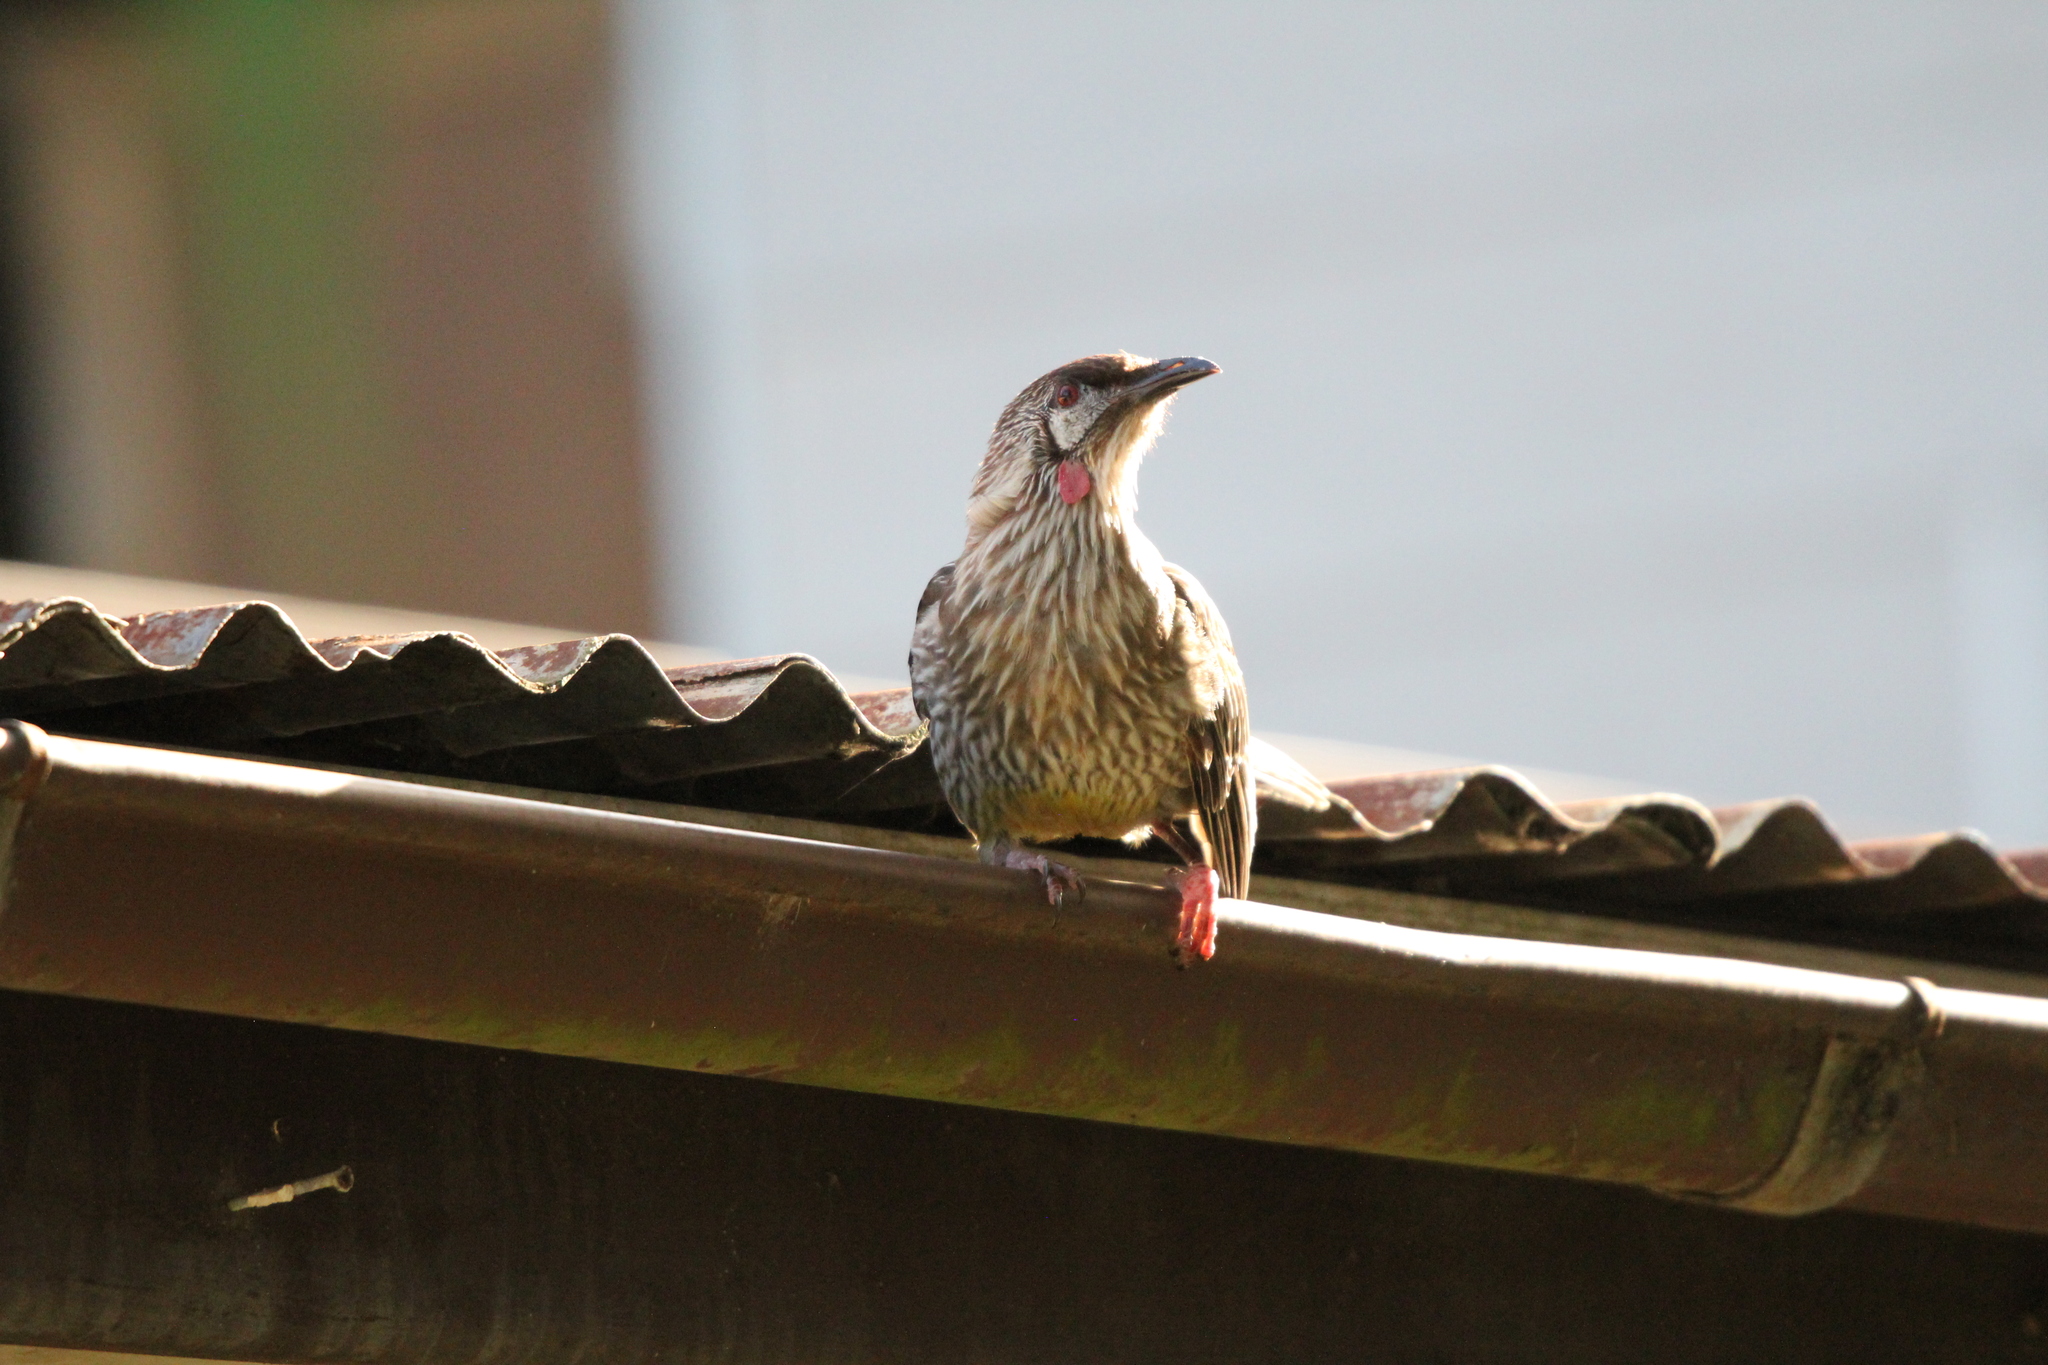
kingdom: Animalia
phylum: Chordata
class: Aves
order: Passeriformes
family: Meliphagidae
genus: Anthochaera
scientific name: Anthochaera carunculata
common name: Red wattlebird
